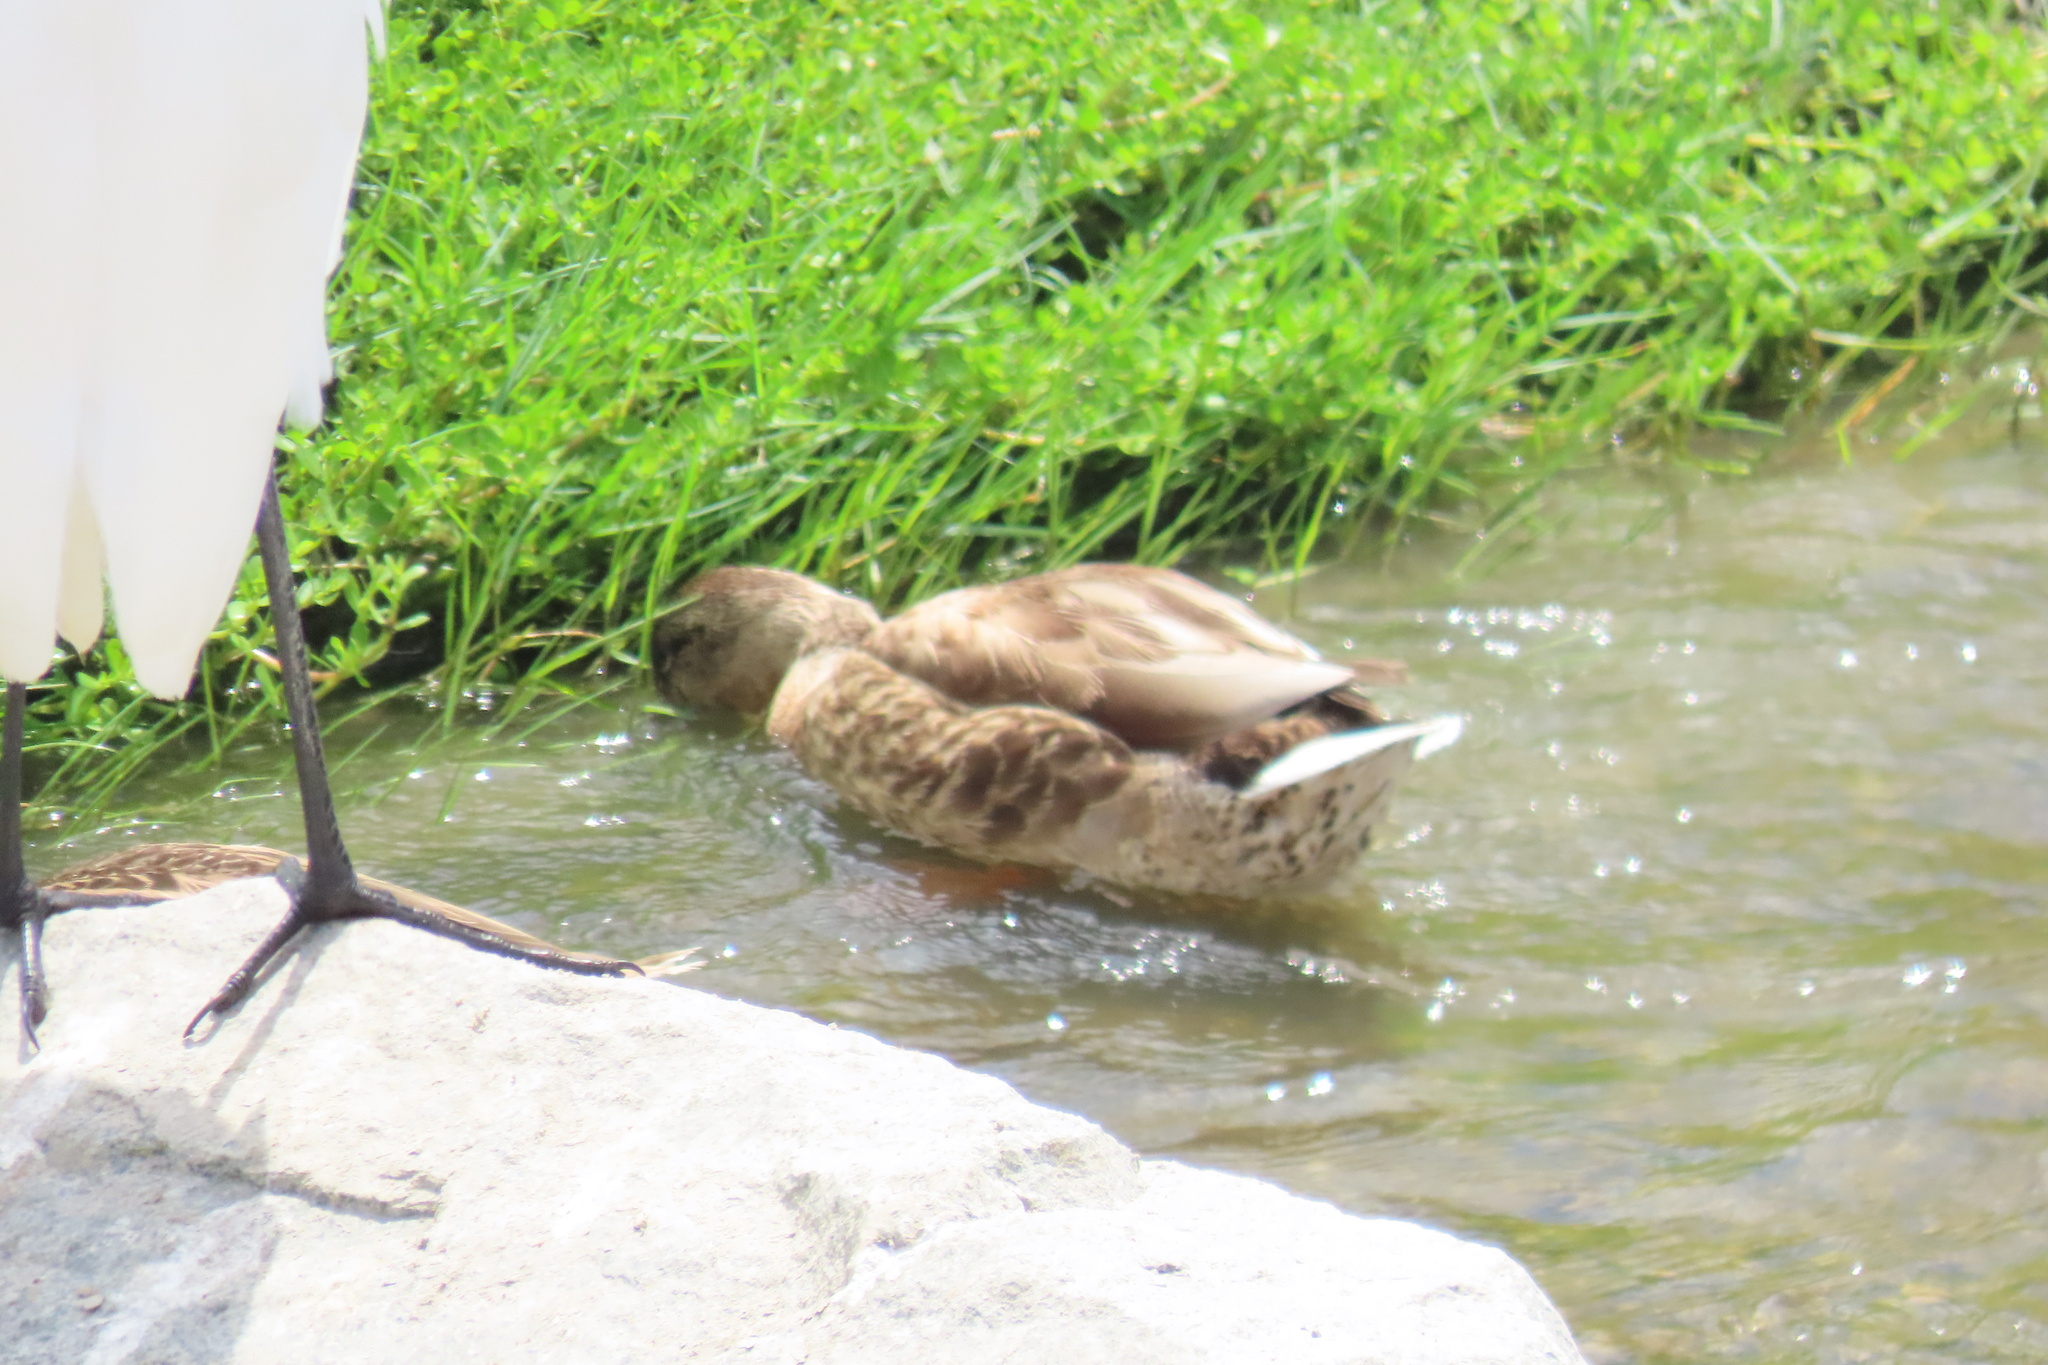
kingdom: Animalia
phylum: Chordata
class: Aves
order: Anseriformes
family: Anatidae
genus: Anas
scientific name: Anas platyrhynchos
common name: Mallard
